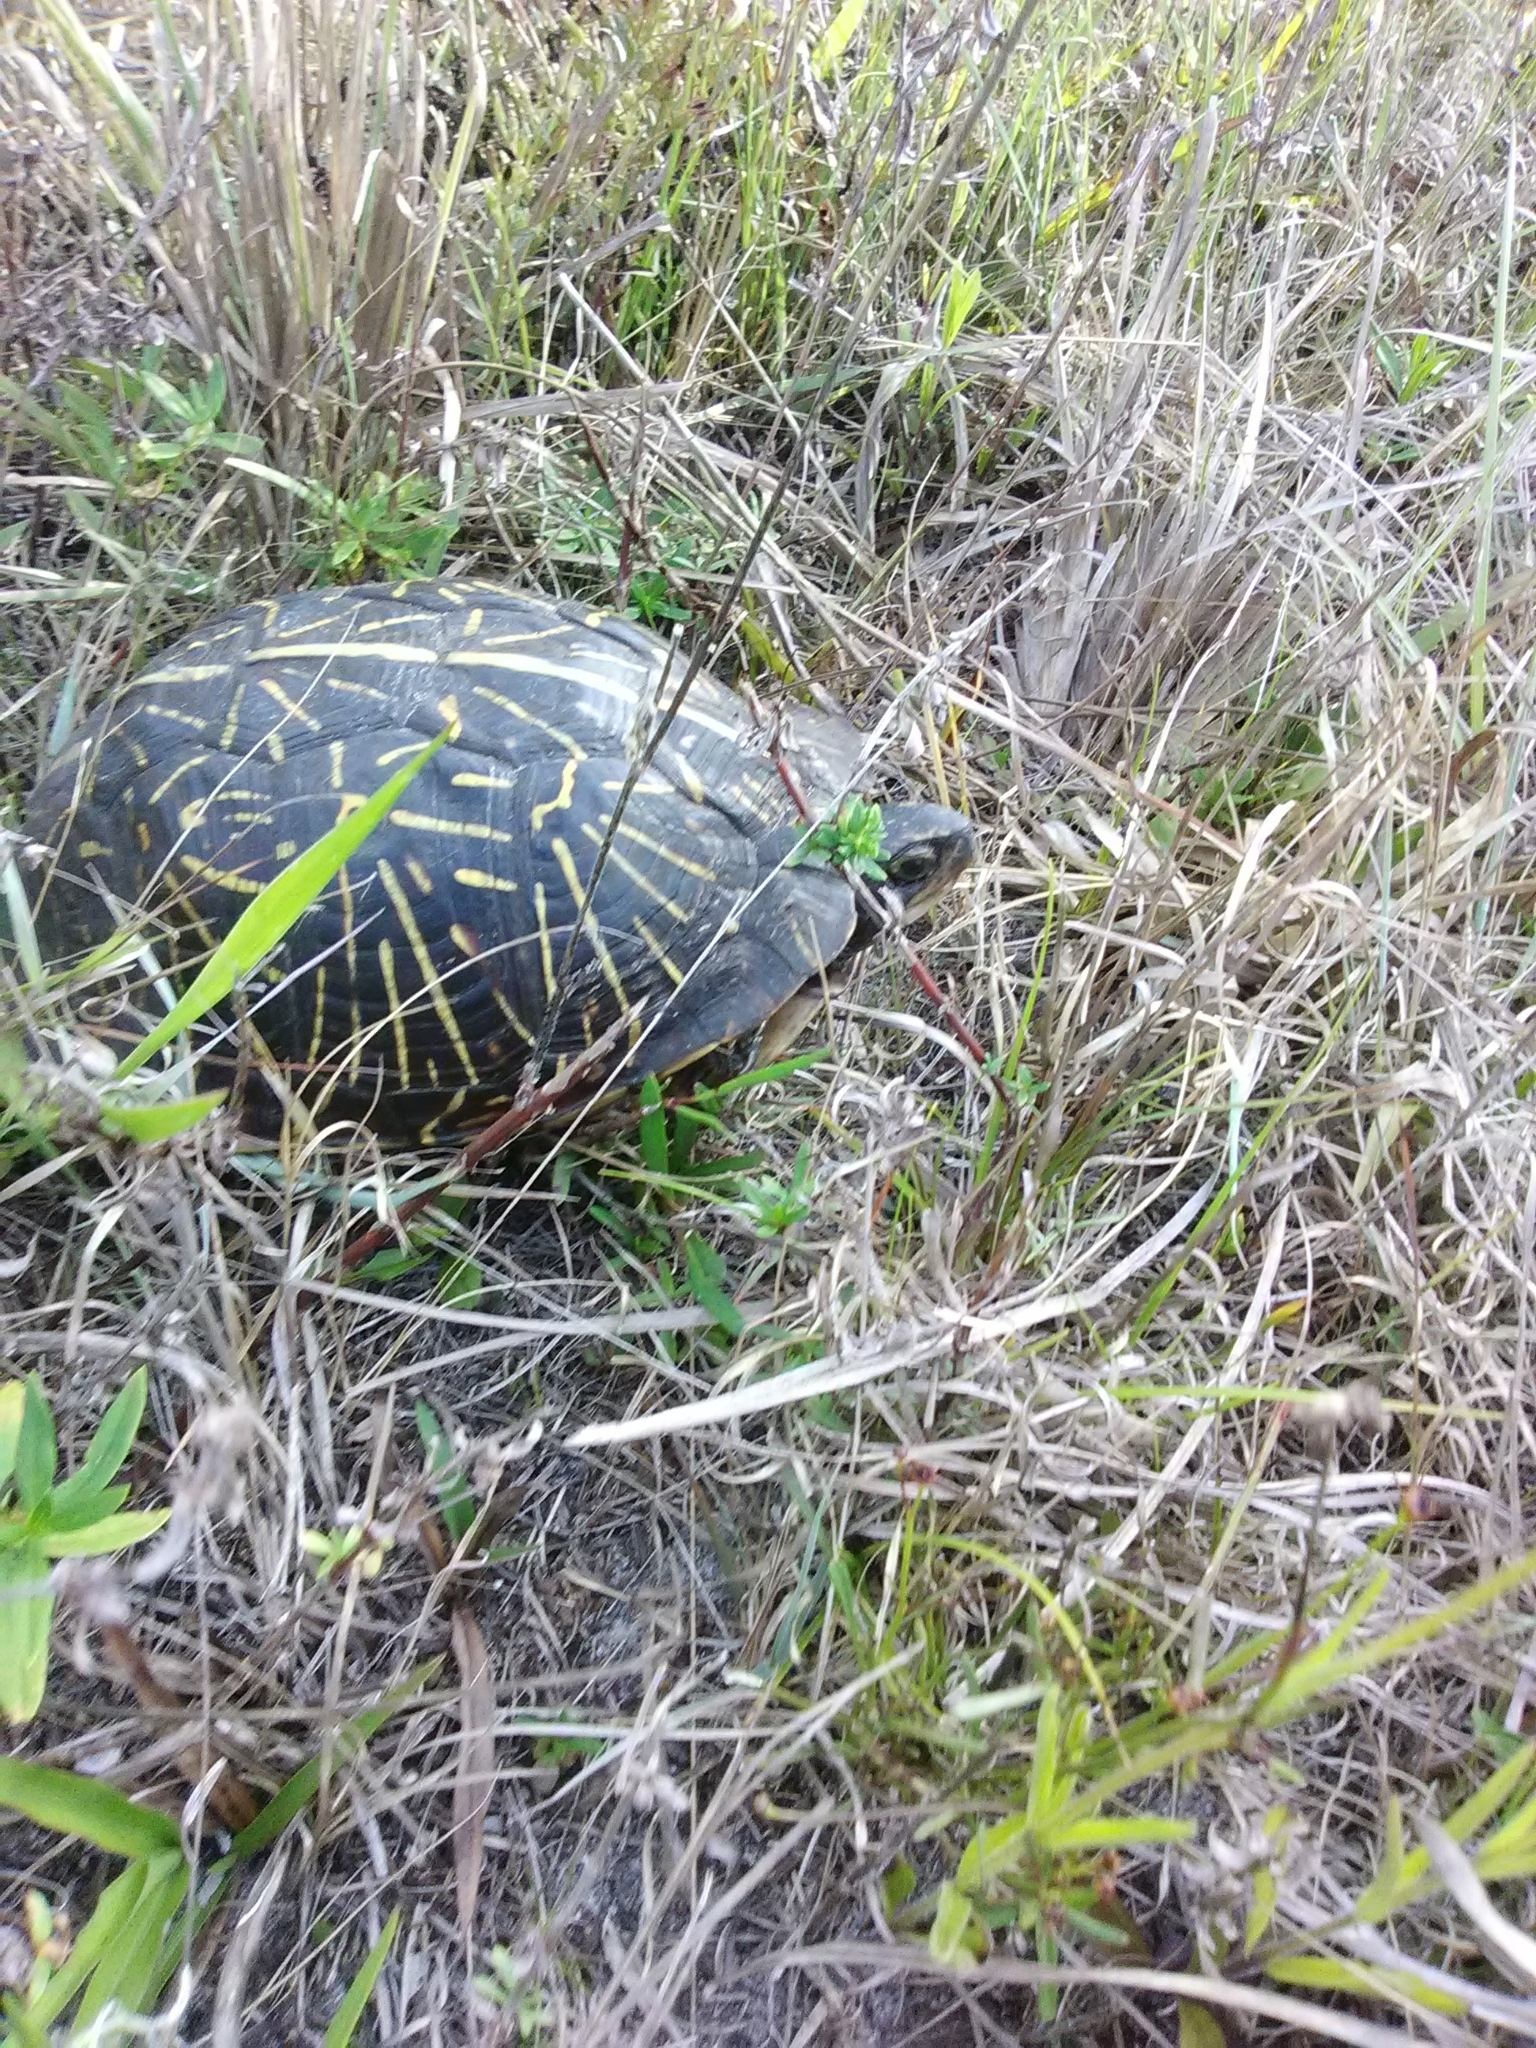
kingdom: Animalia
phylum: Chordata
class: Testudines
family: Emydidae
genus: Terrapene
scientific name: Terrapene carolina
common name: Common box turtle
